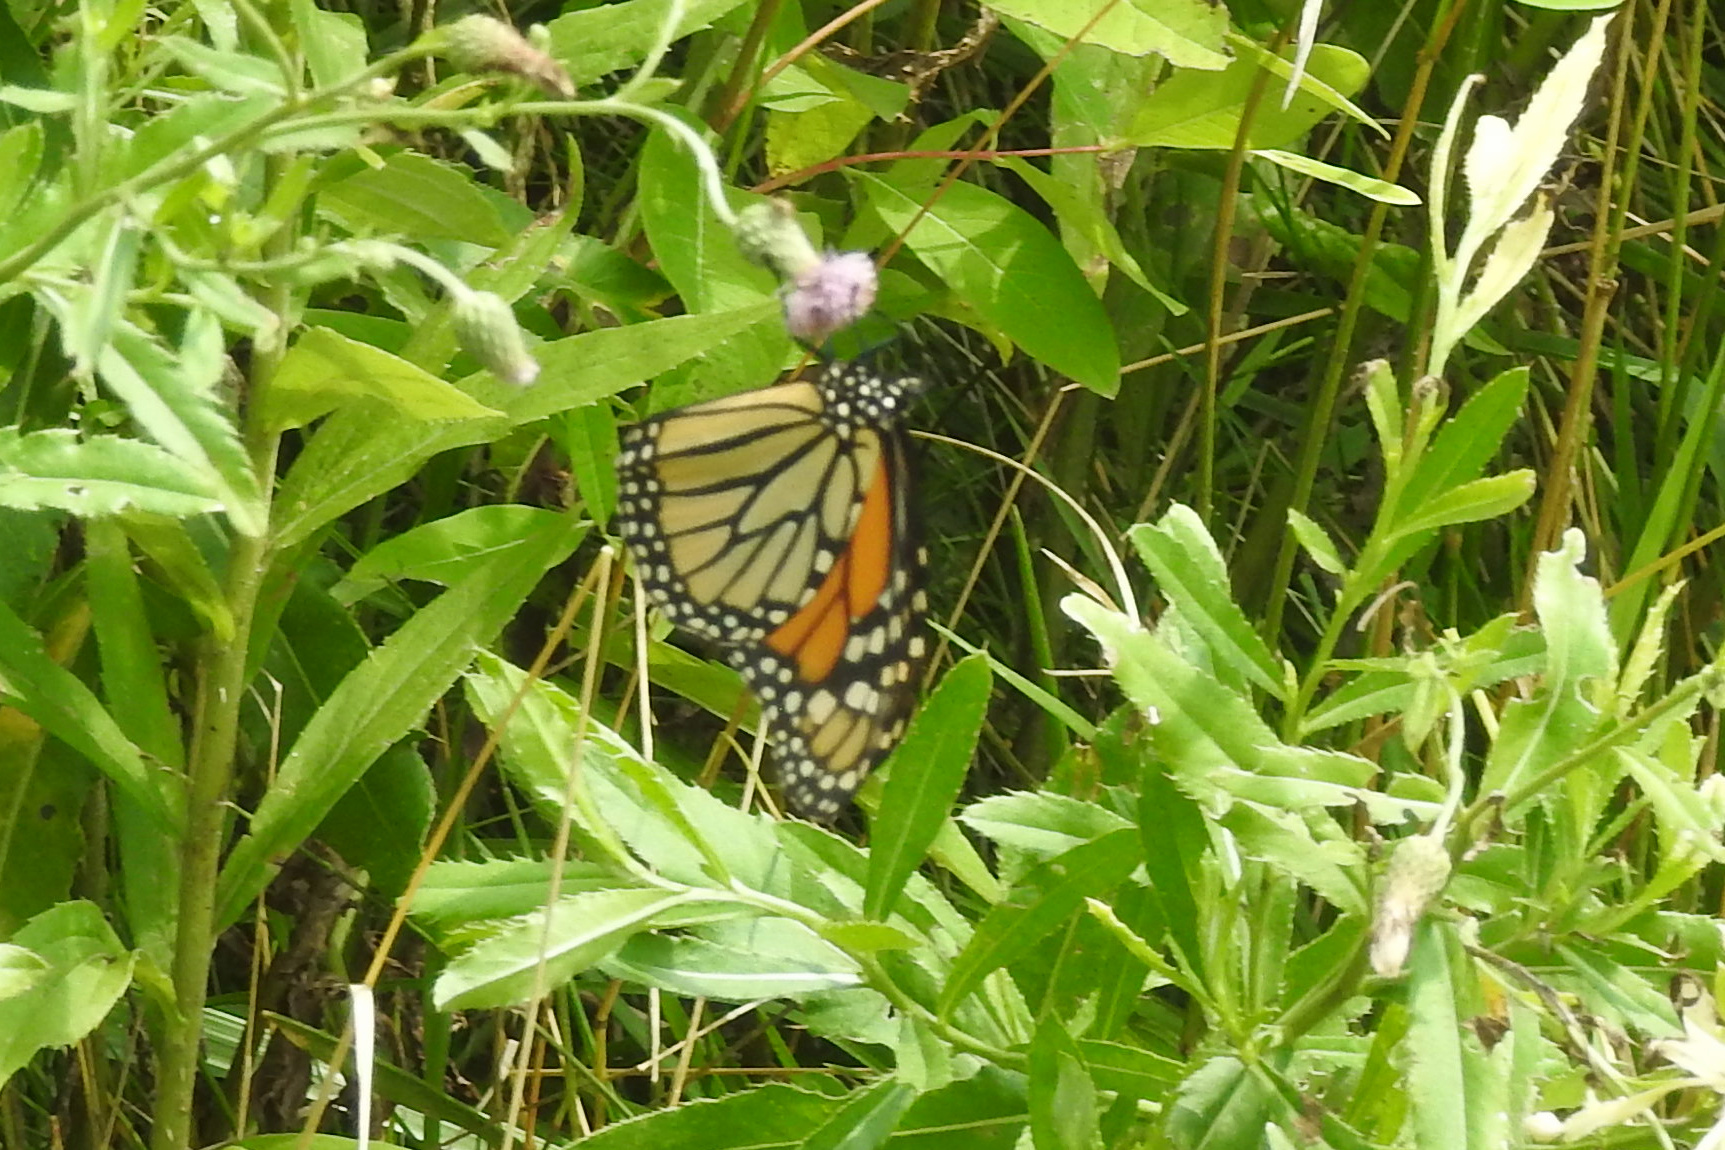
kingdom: Animalia
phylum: Arthropoda
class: Insecta
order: Lepidoptera
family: Nymphalidae
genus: Danaus
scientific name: Danaus plexippus
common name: Monarch
